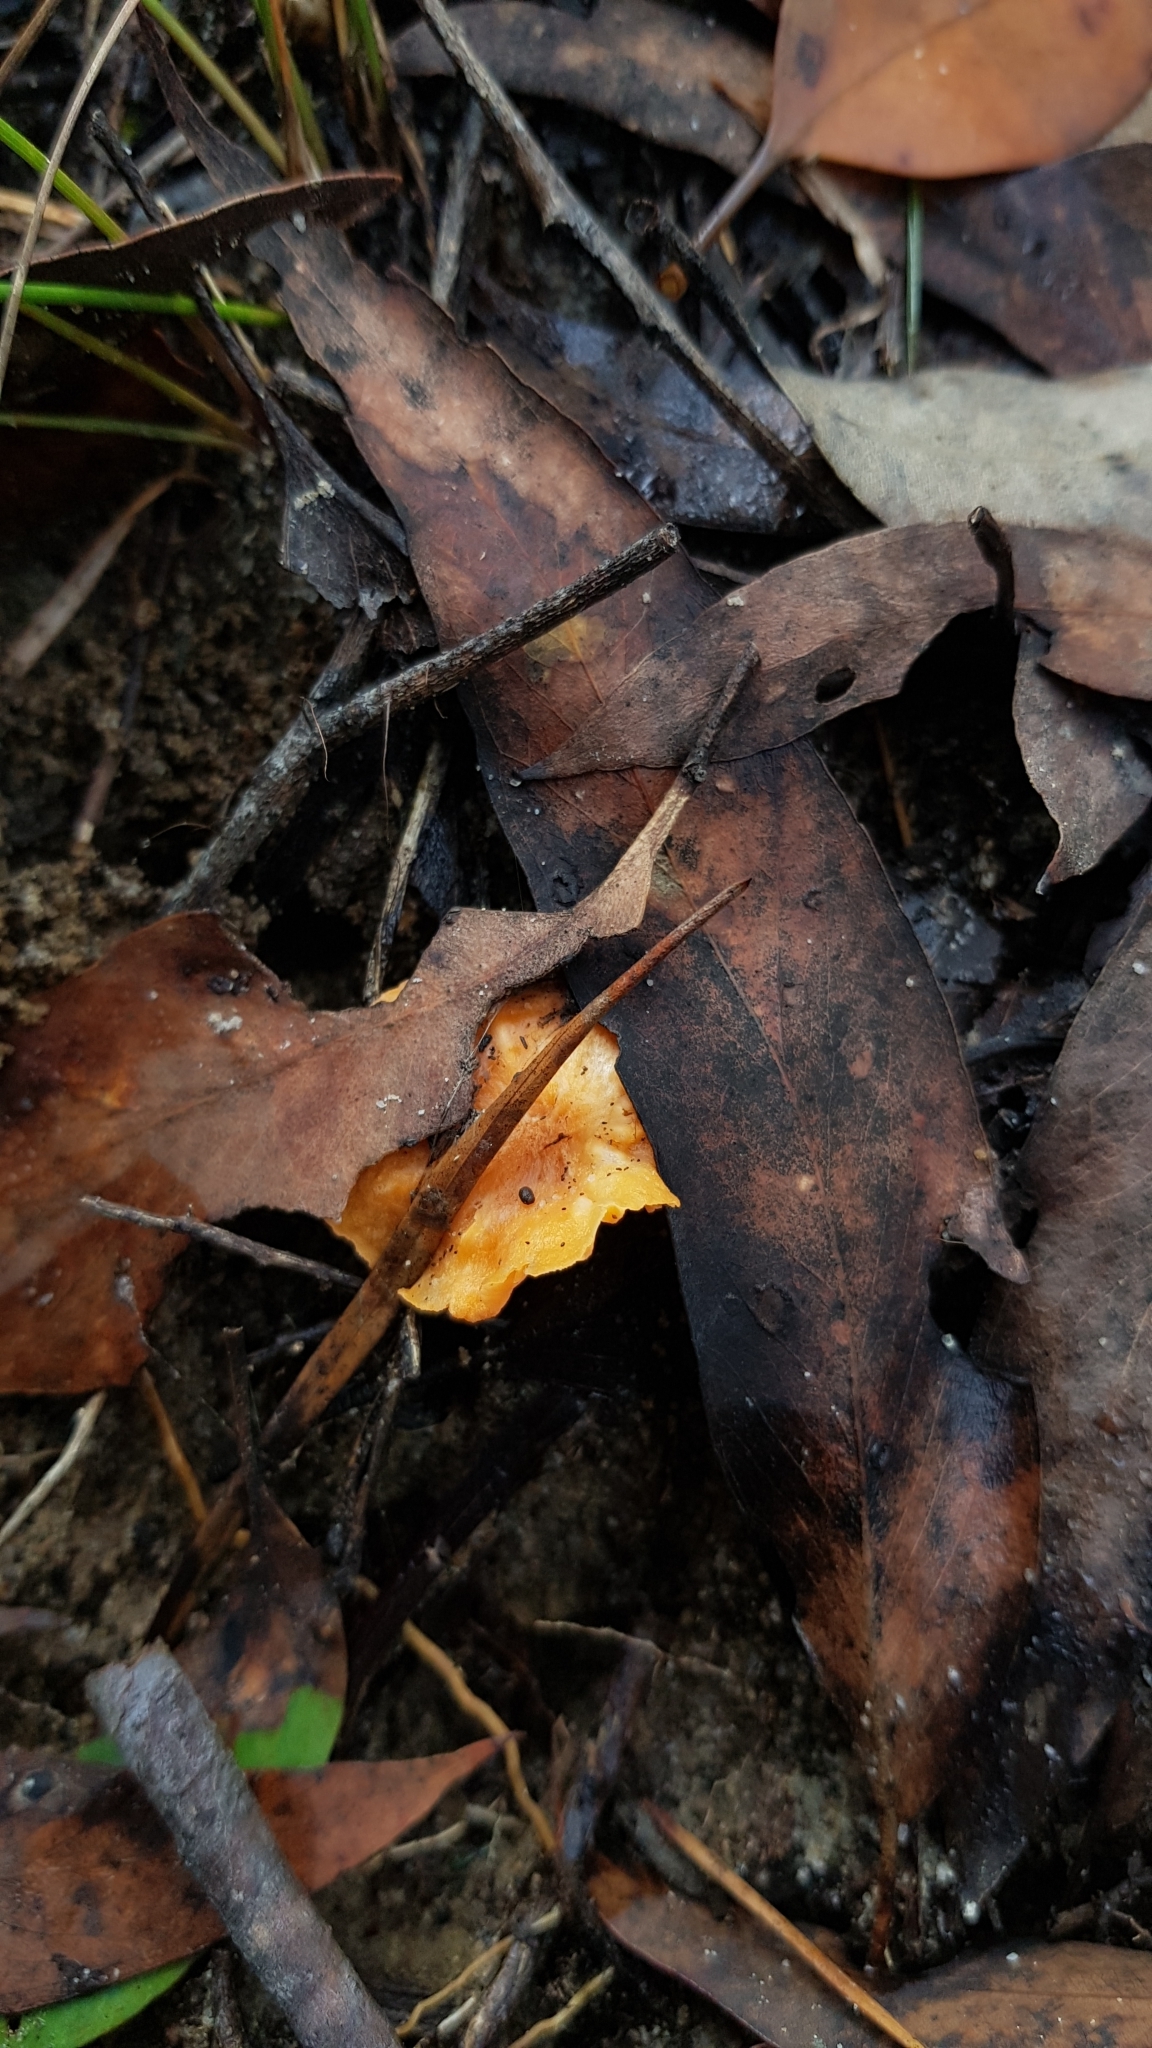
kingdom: Fungi
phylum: Basidiomycota
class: Agaricomycetes
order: Cantharellales
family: Hydnaceae
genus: Cantharellus
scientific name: Cantharellus
